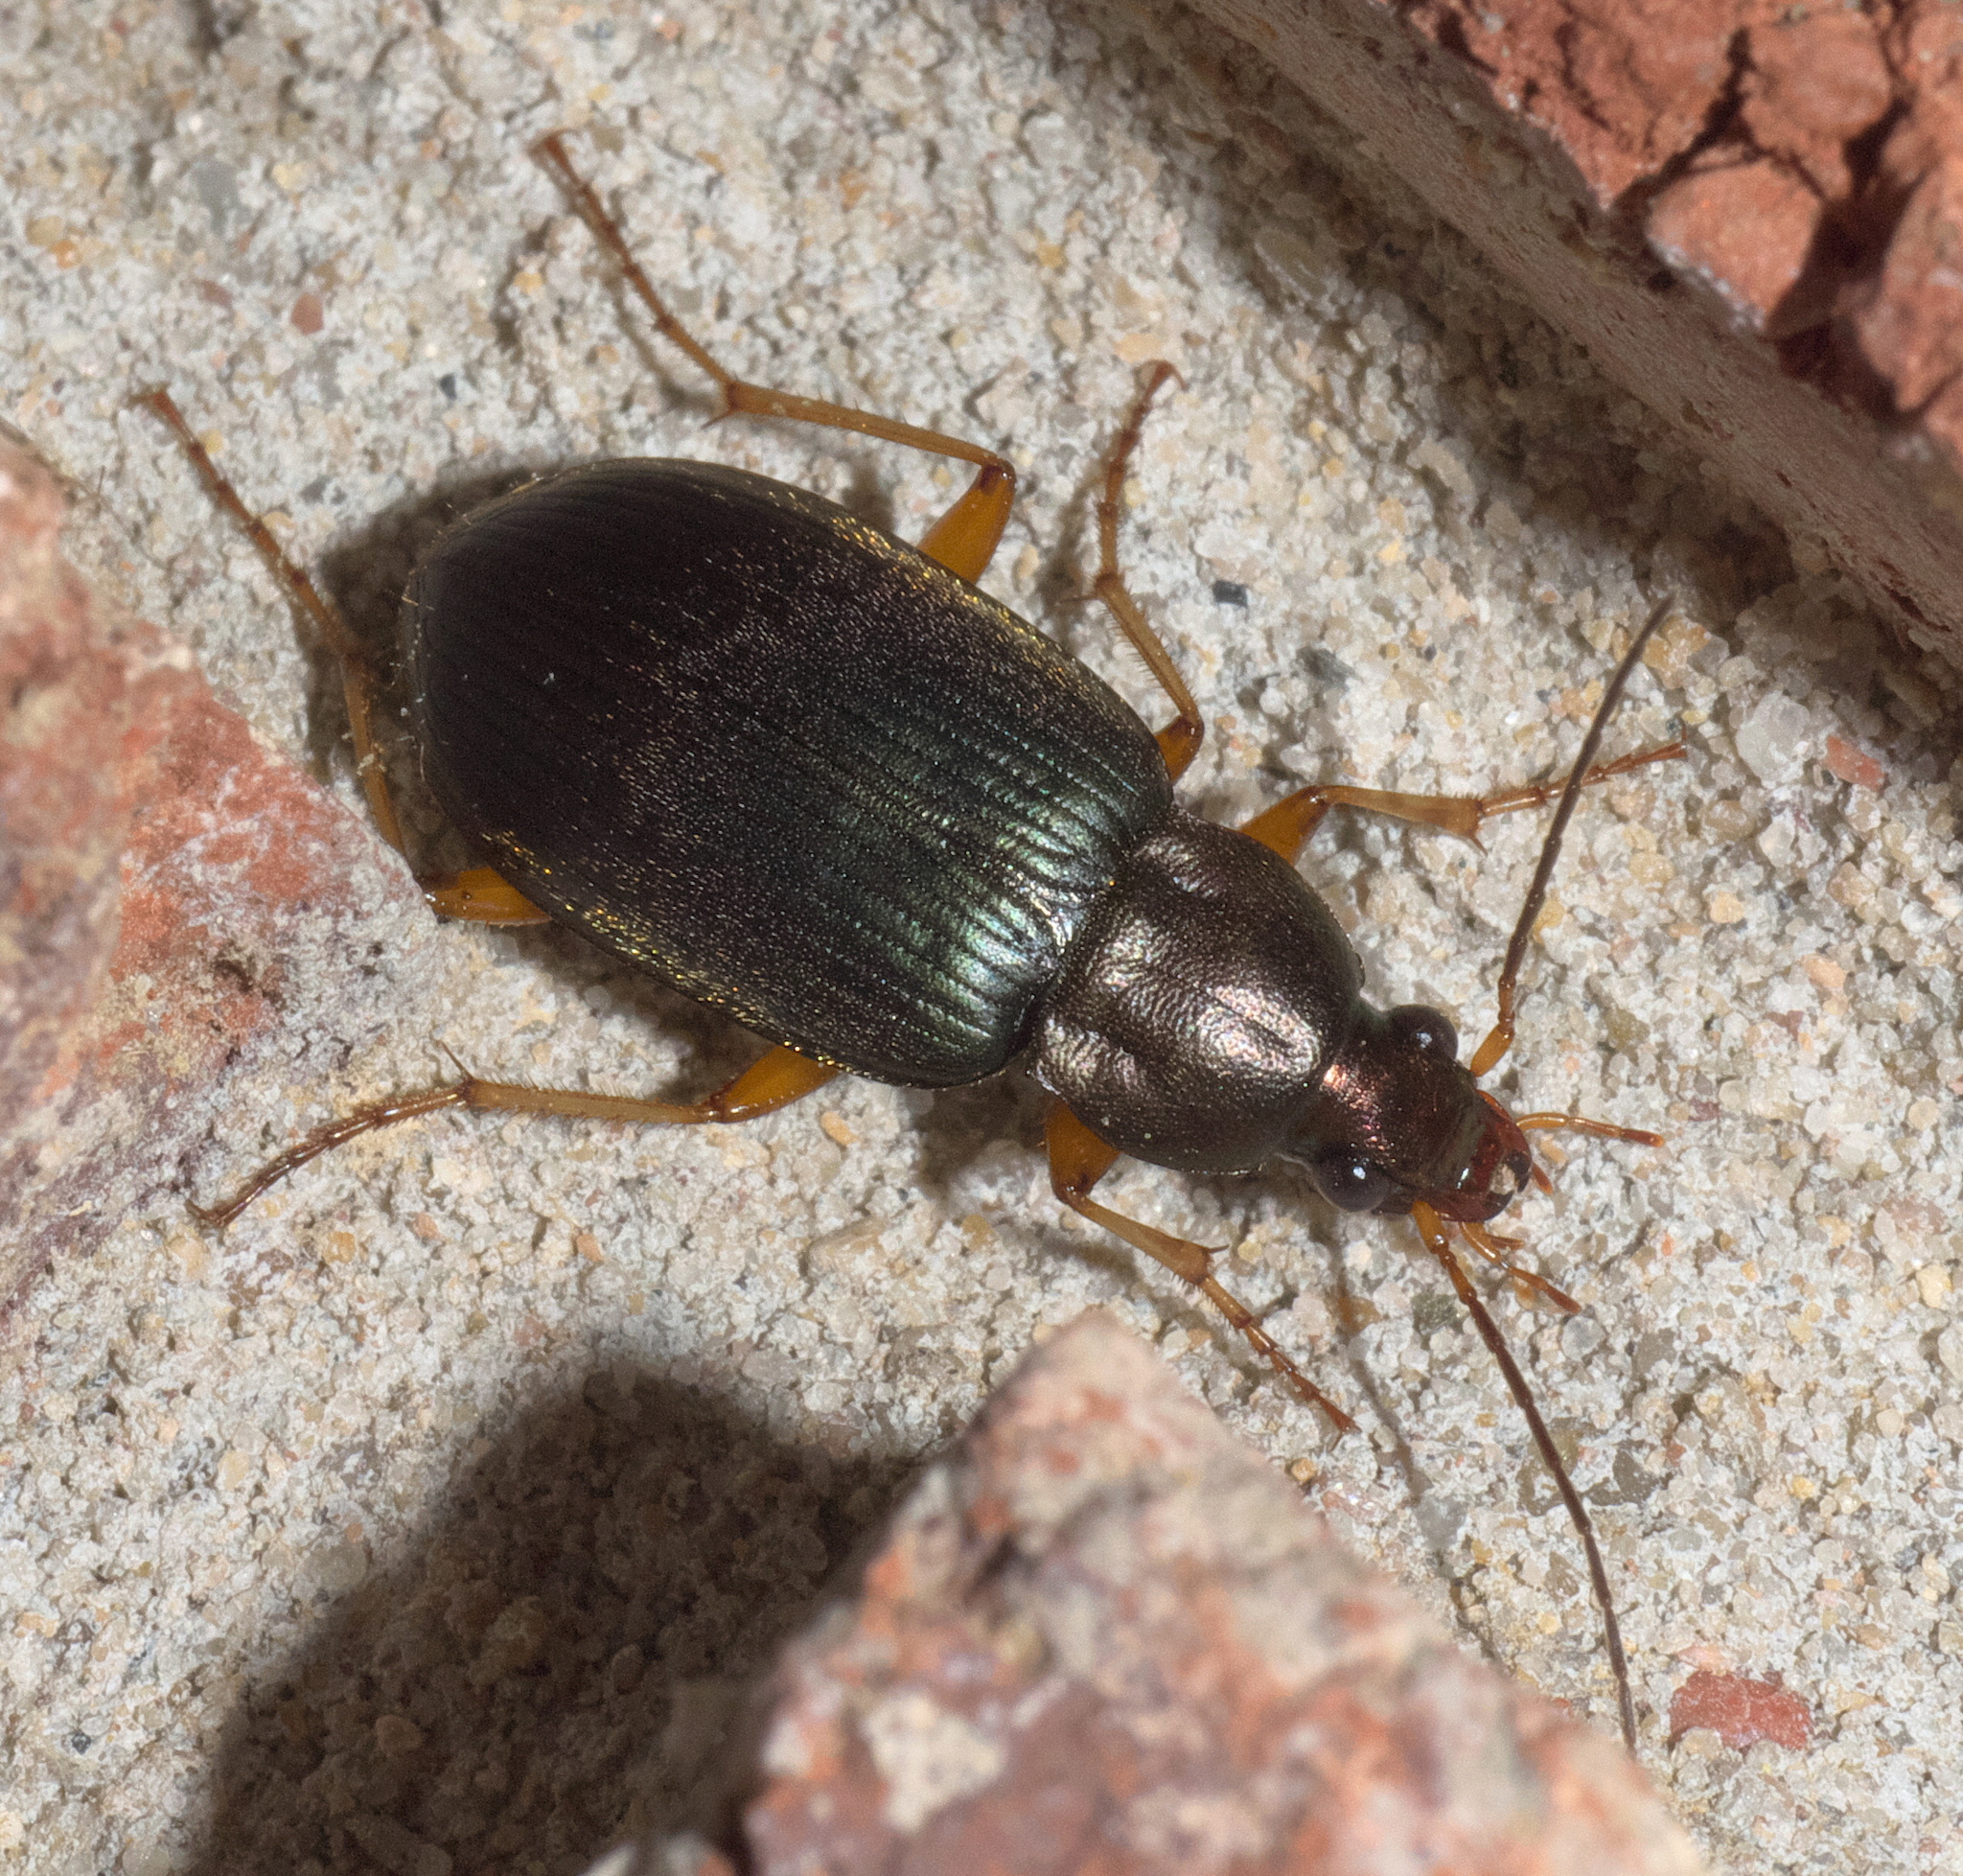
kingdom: Animalia
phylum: Arthropoda
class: Insecta
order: Coleoptera
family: Carabidae
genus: Chlaenius
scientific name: Chlaenius tricolor
